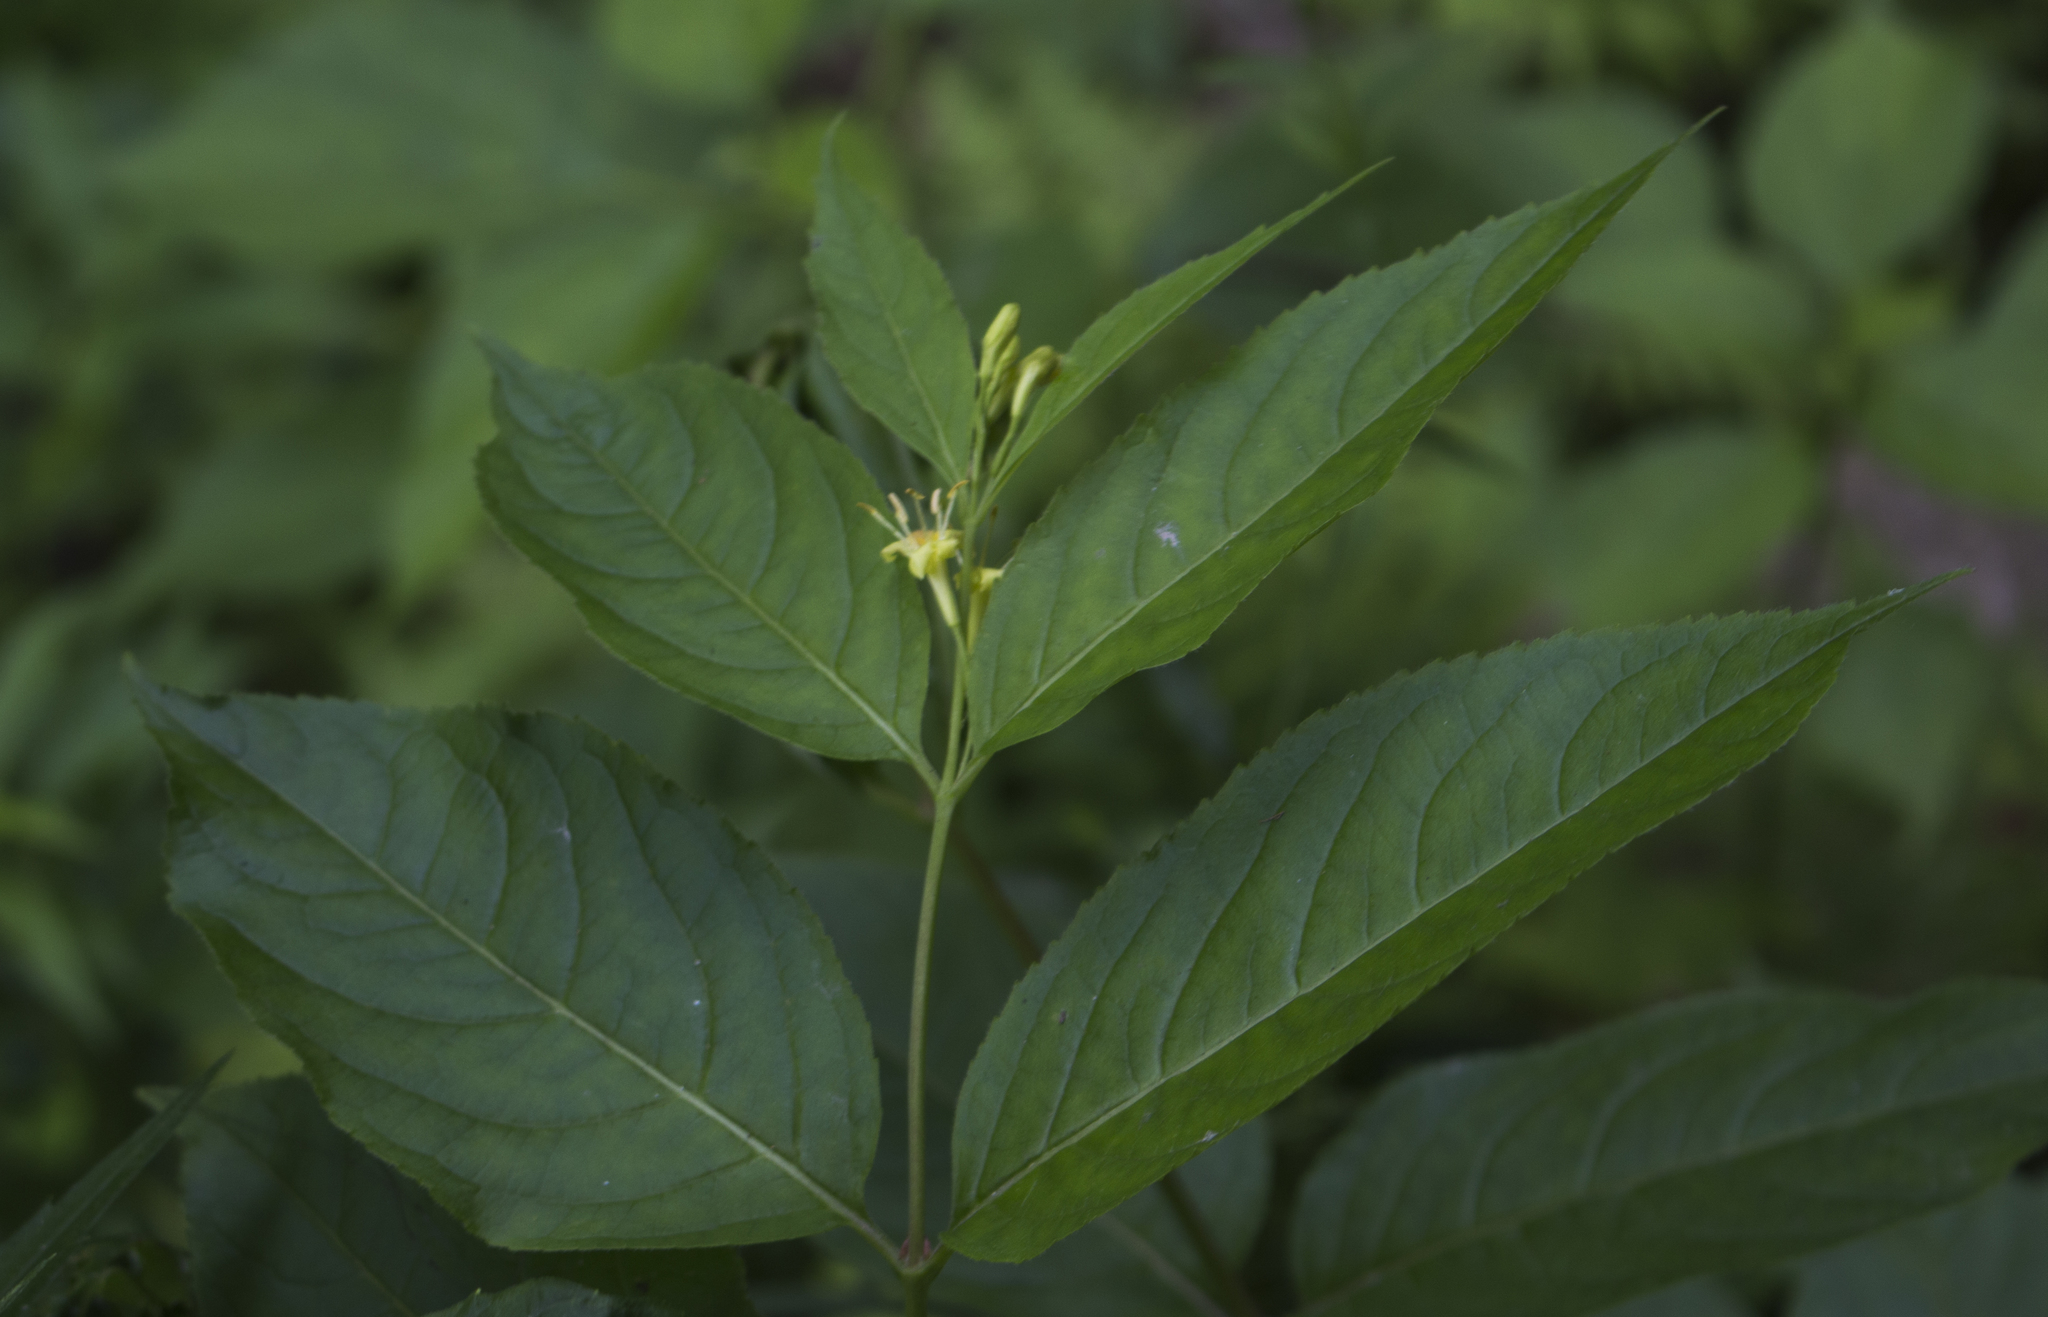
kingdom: Plantae
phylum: Tracheophyta
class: Magnoliopsida
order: Dipsacales
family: Caprifoliaceae
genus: Diervilla
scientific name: Diervilla lonicera
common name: Bush-honeysuckle
